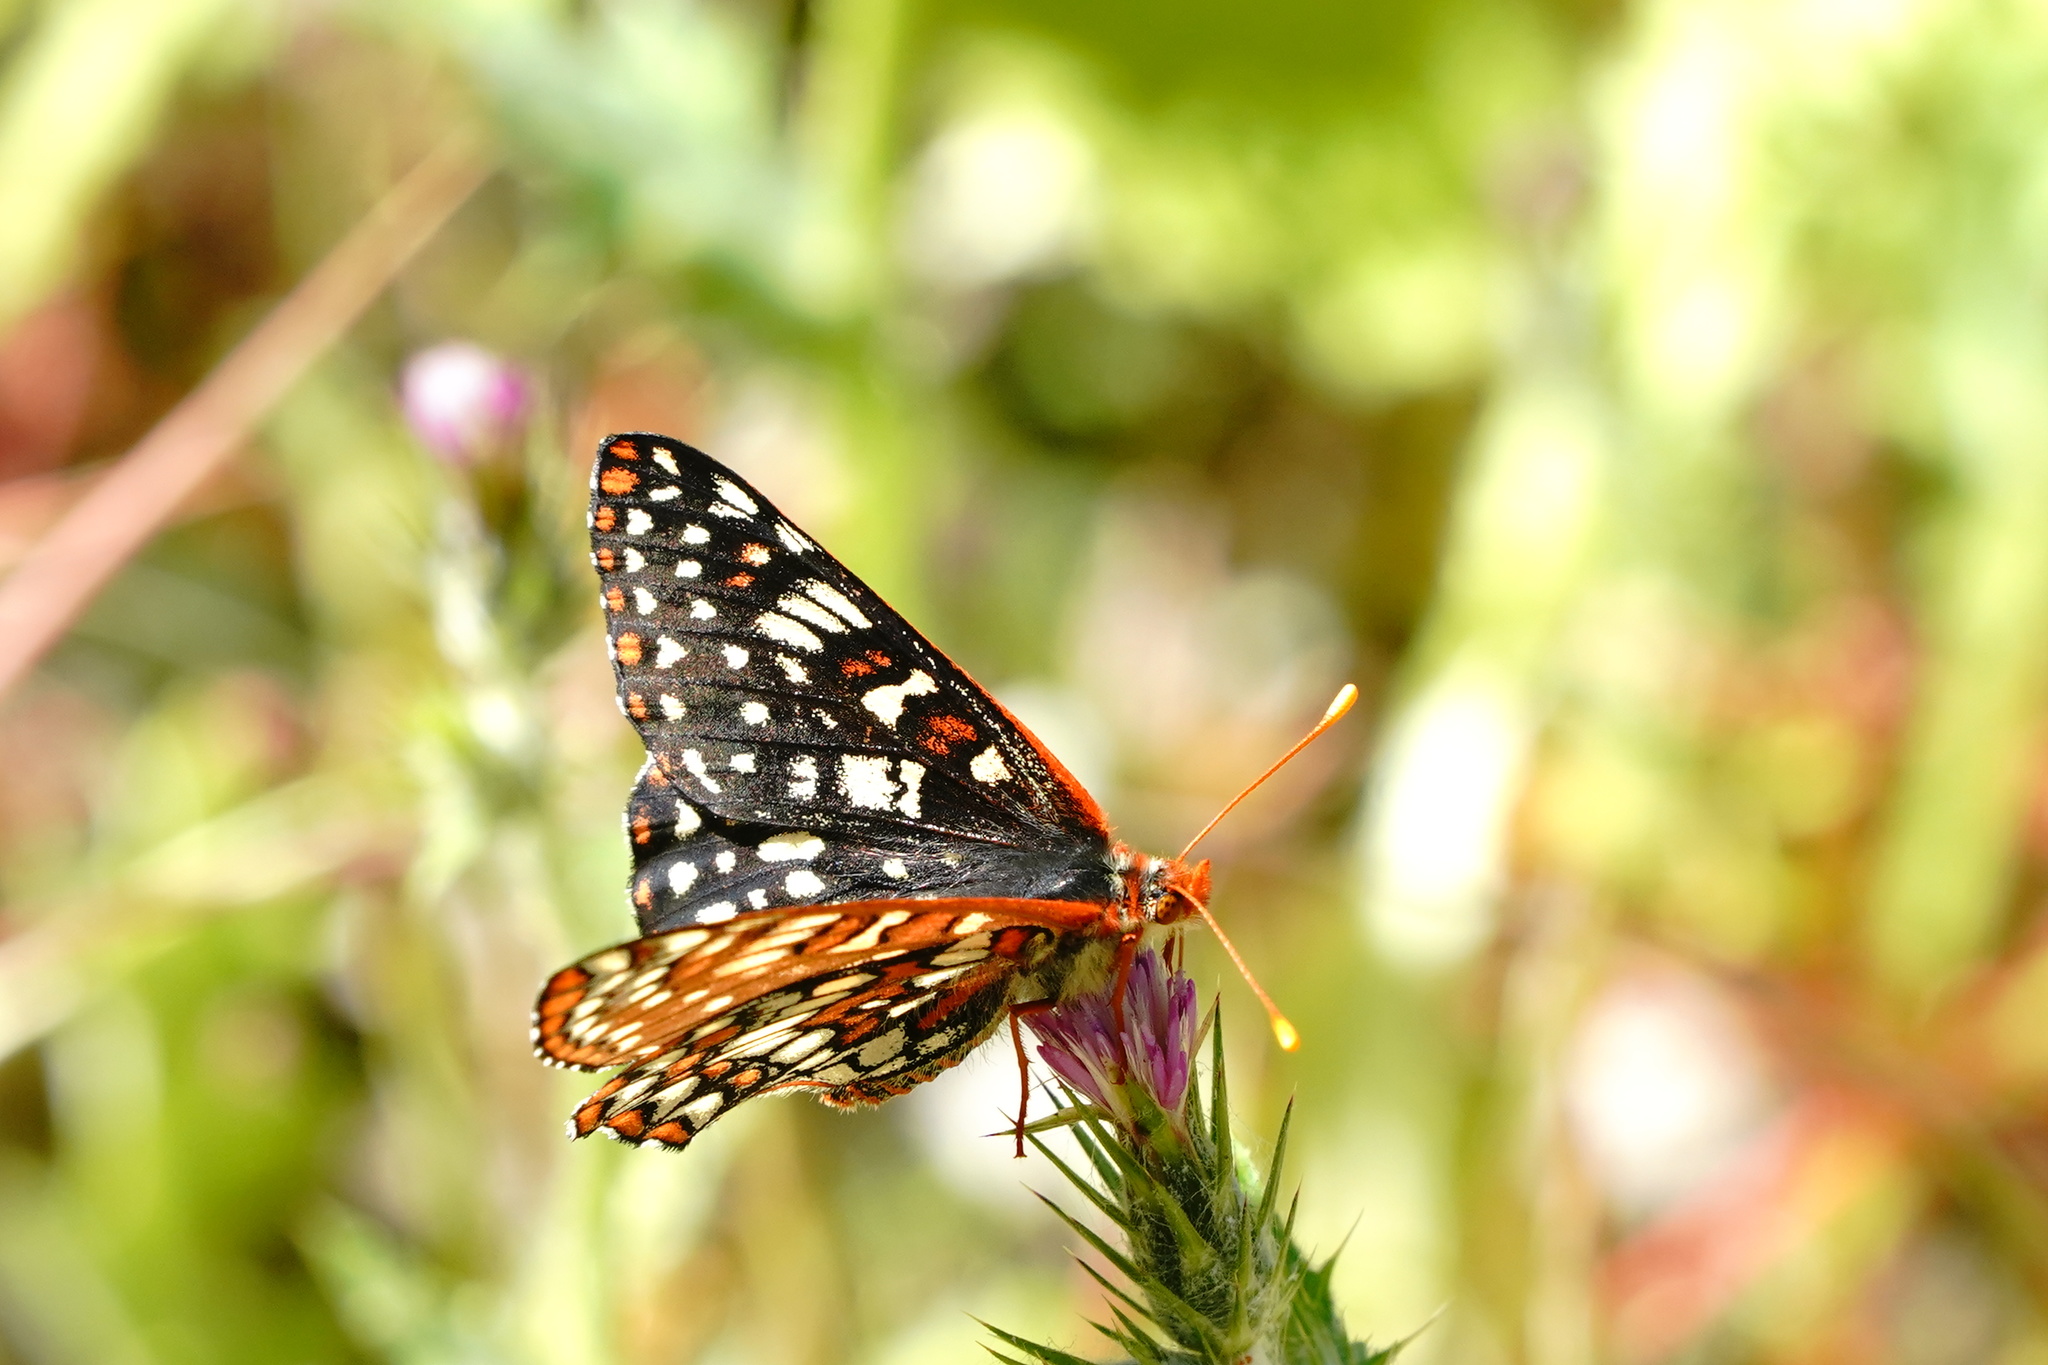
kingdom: Animalia
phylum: Arthropoda
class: Insecta
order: Lepidoptera
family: Nymphalidae
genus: Occidryas
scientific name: Occidryas chalcedona
